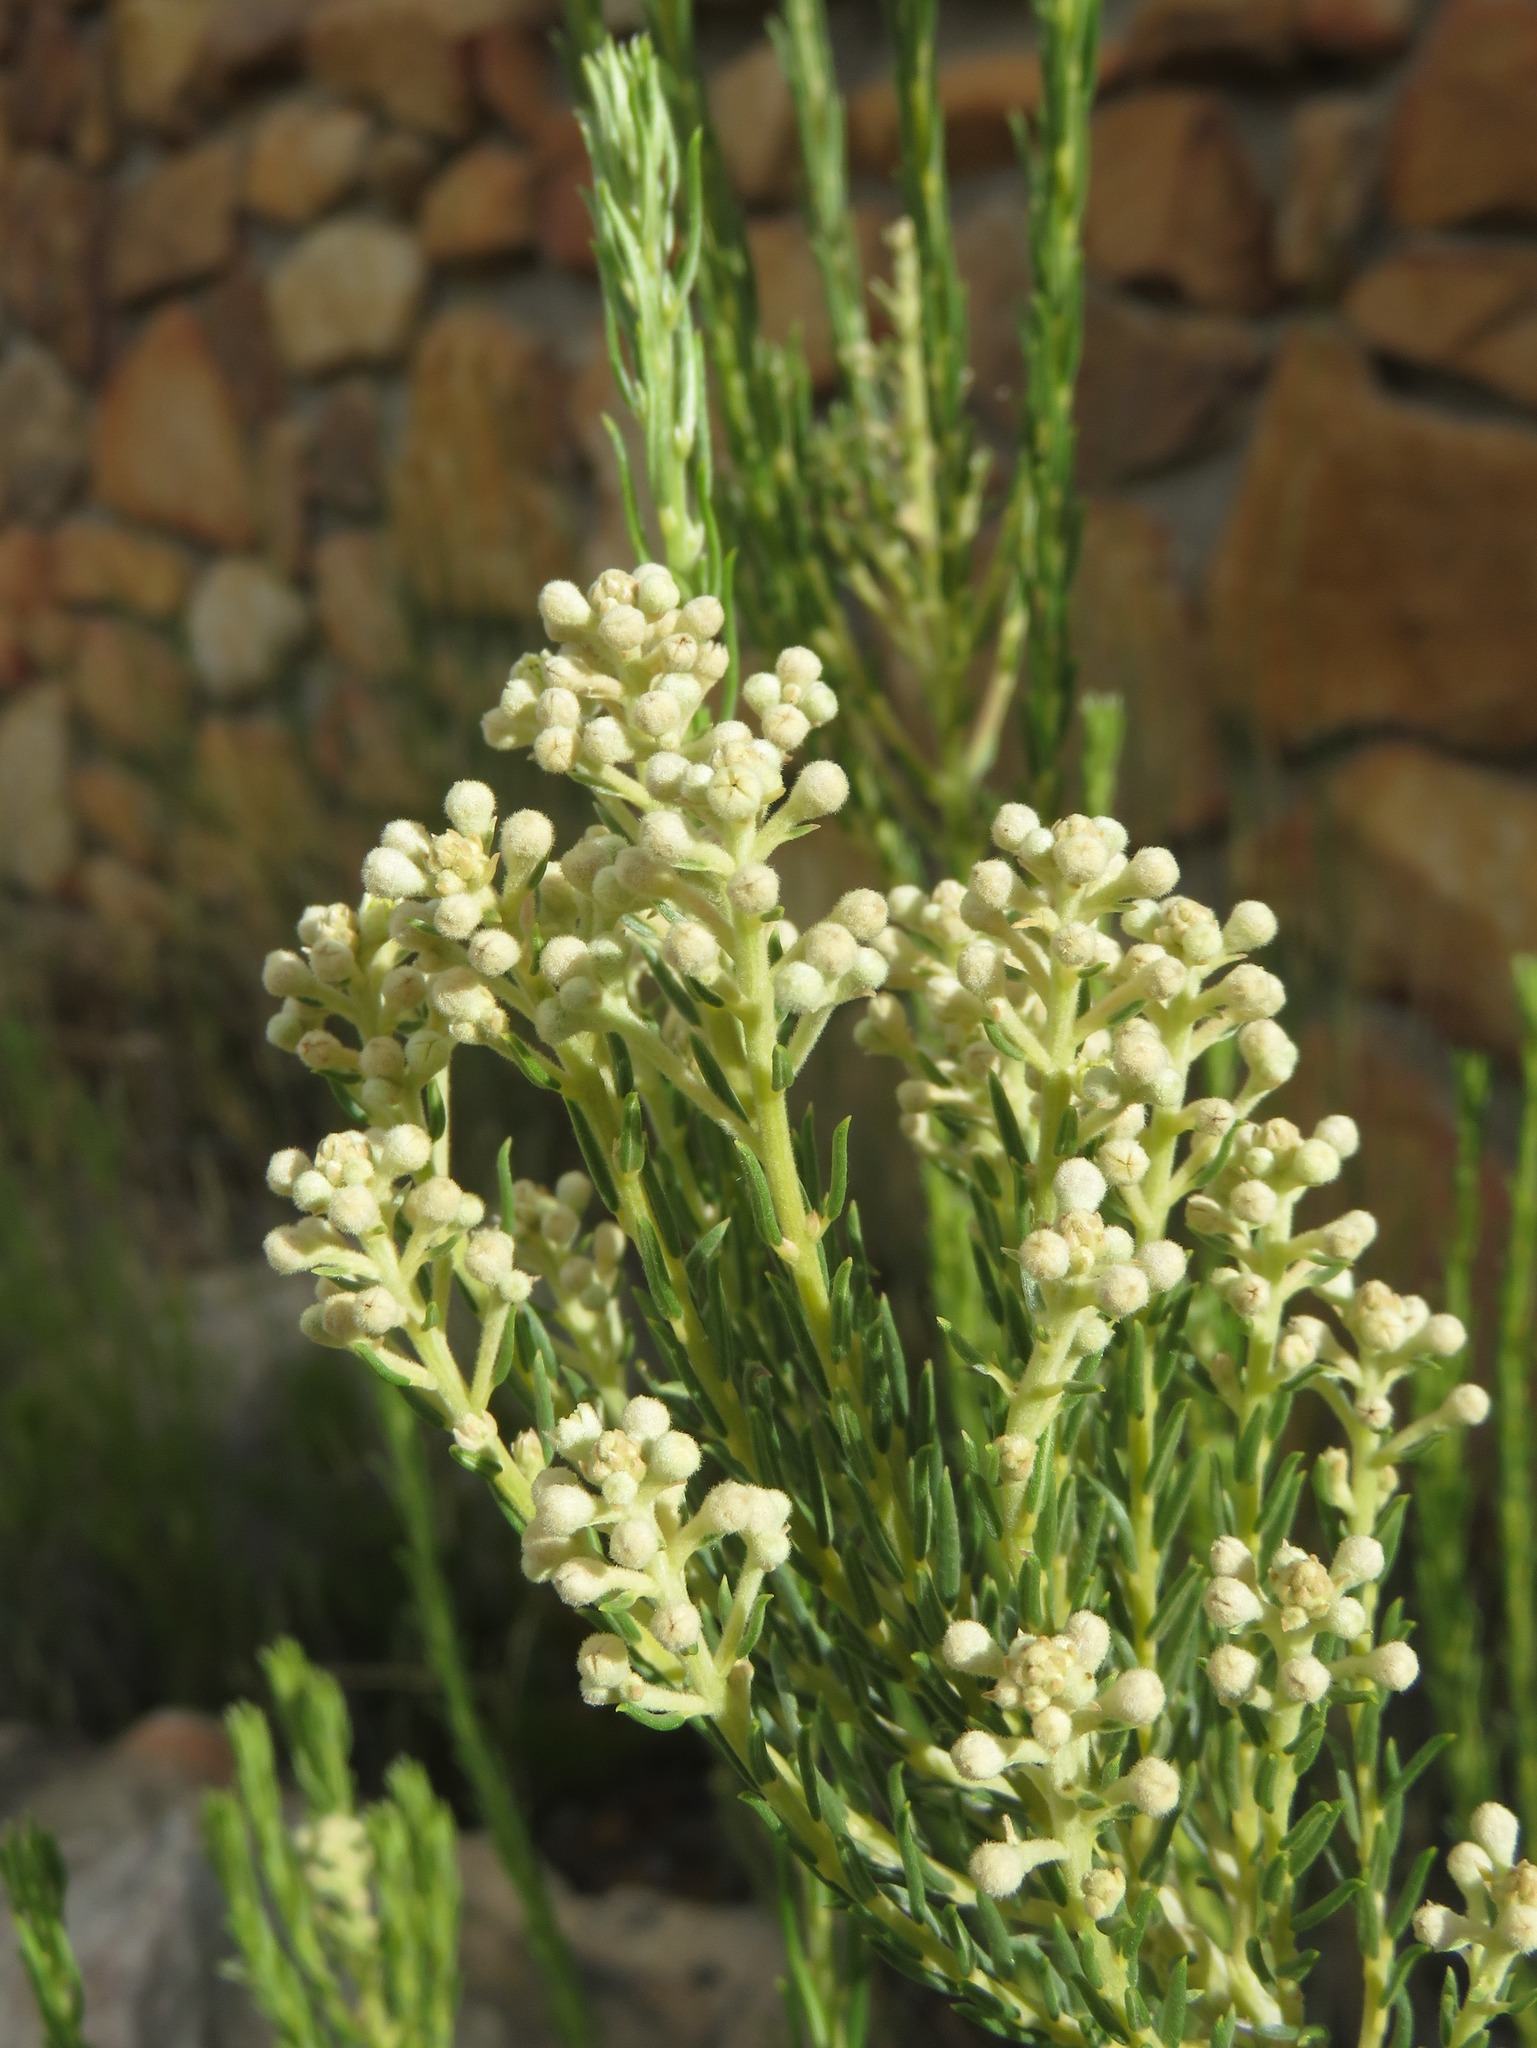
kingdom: Plantae
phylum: Tracheophyta
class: Magnoliopsida
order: Rosales
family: Rhamnaceae
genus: Phylica
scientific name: Phylica rigidifolia
